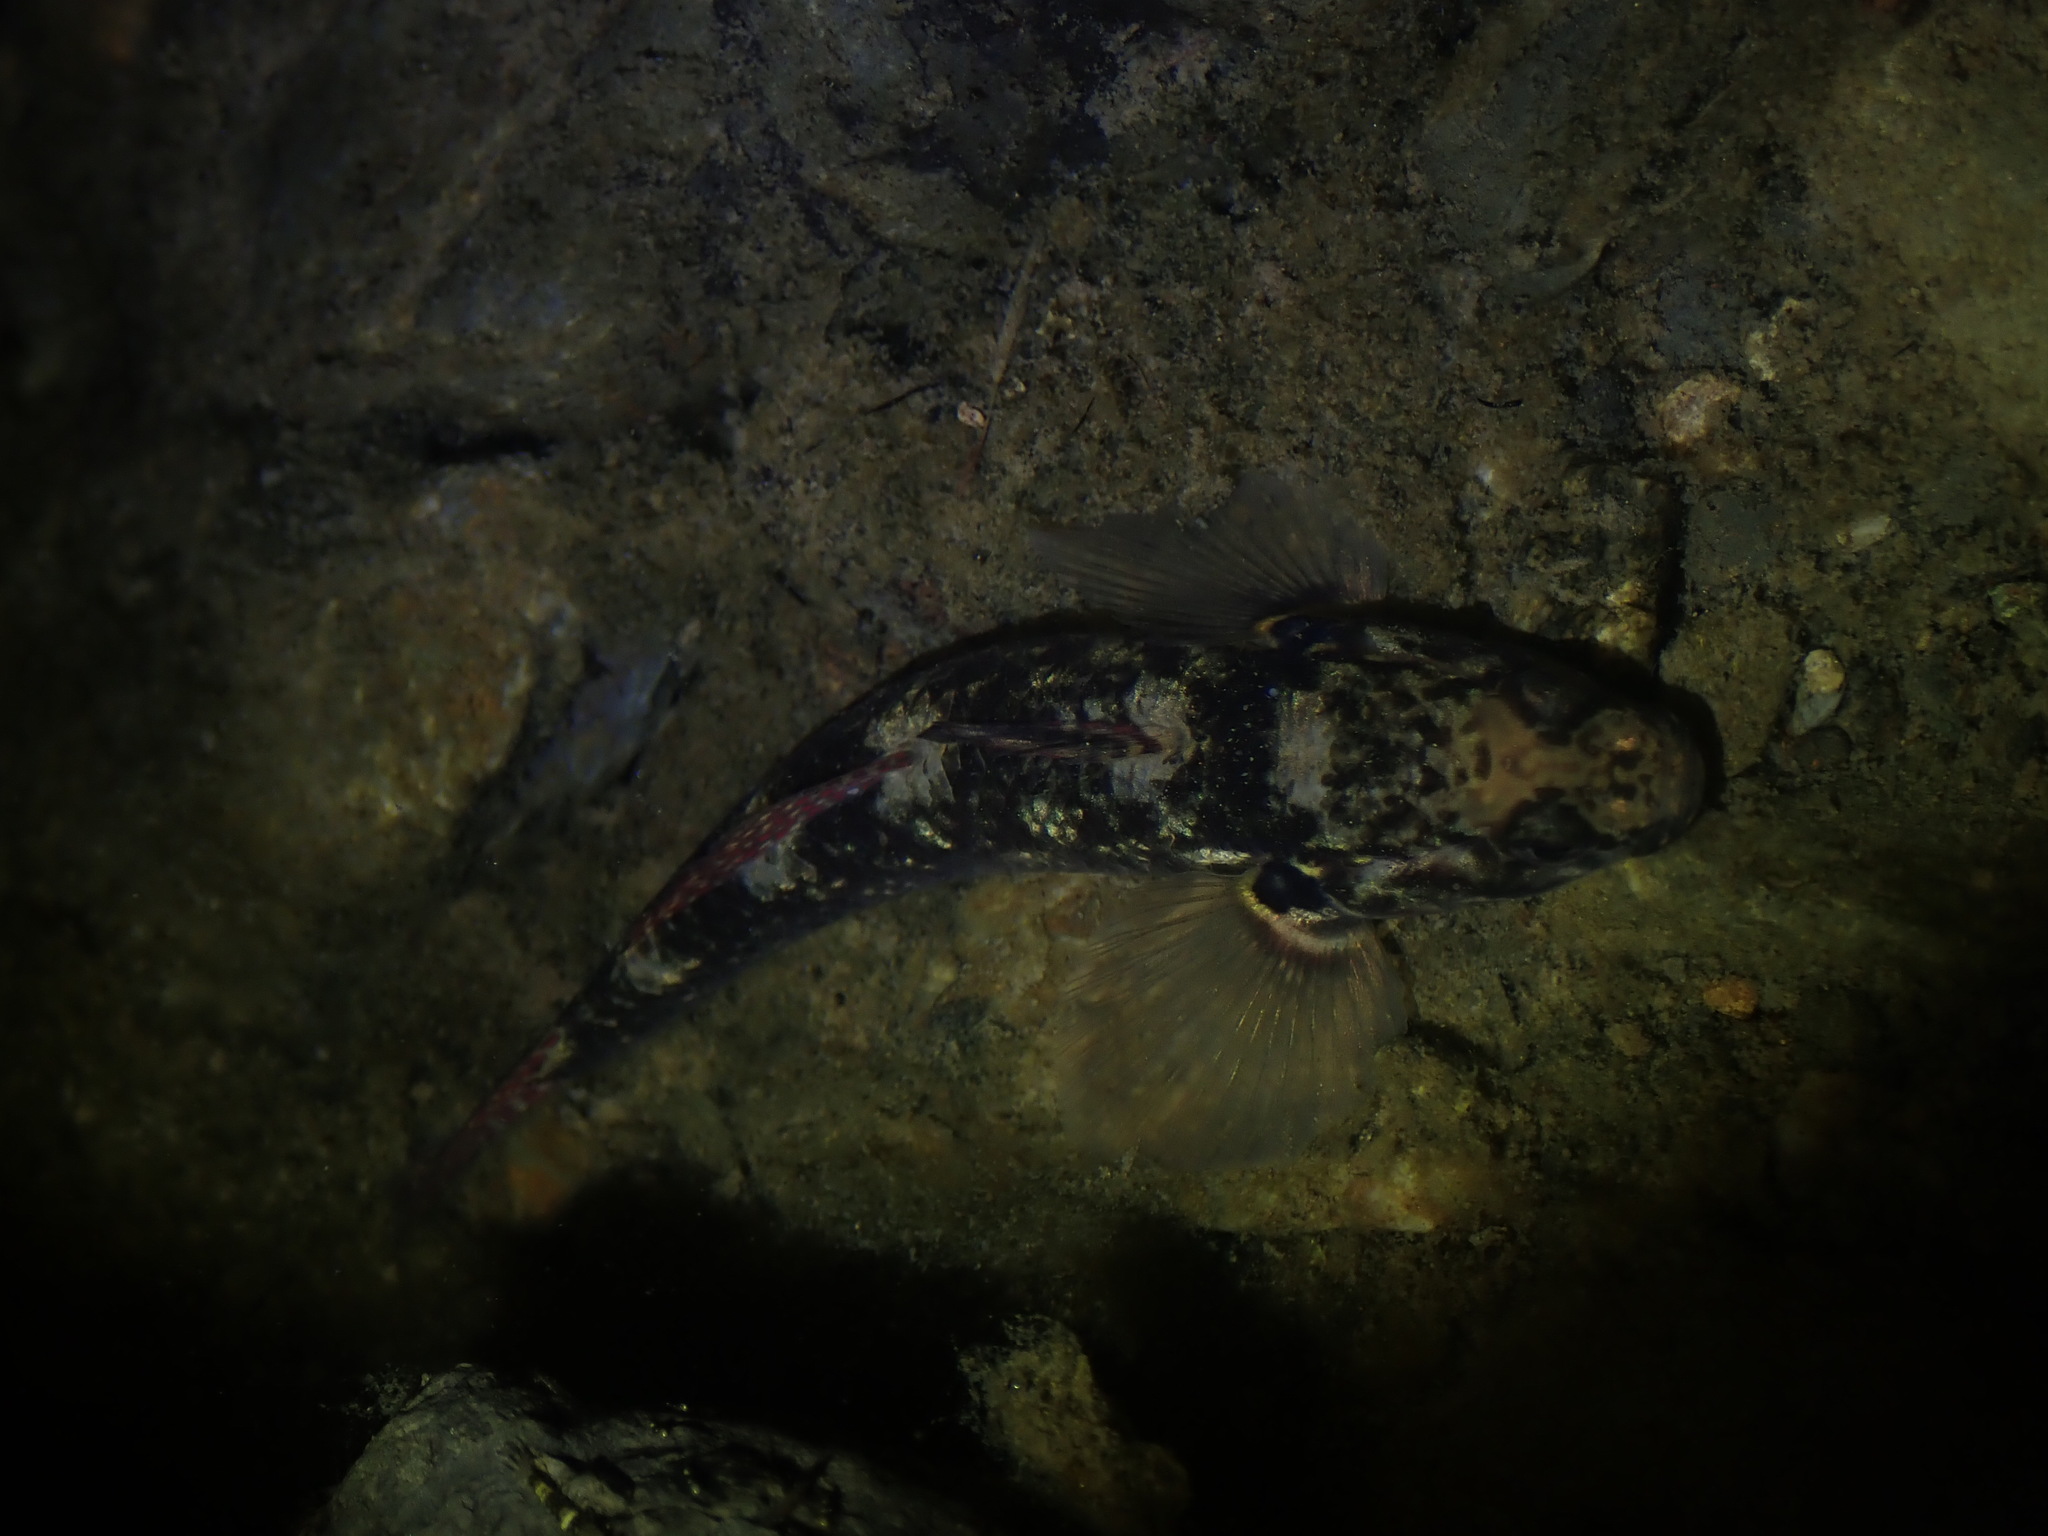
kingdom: Animalia
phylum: Chordata
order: Perciformes
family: Eleotridae
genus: Gobiomorphus
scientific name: Gobiomorphus huttoni
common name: Redfin bully
